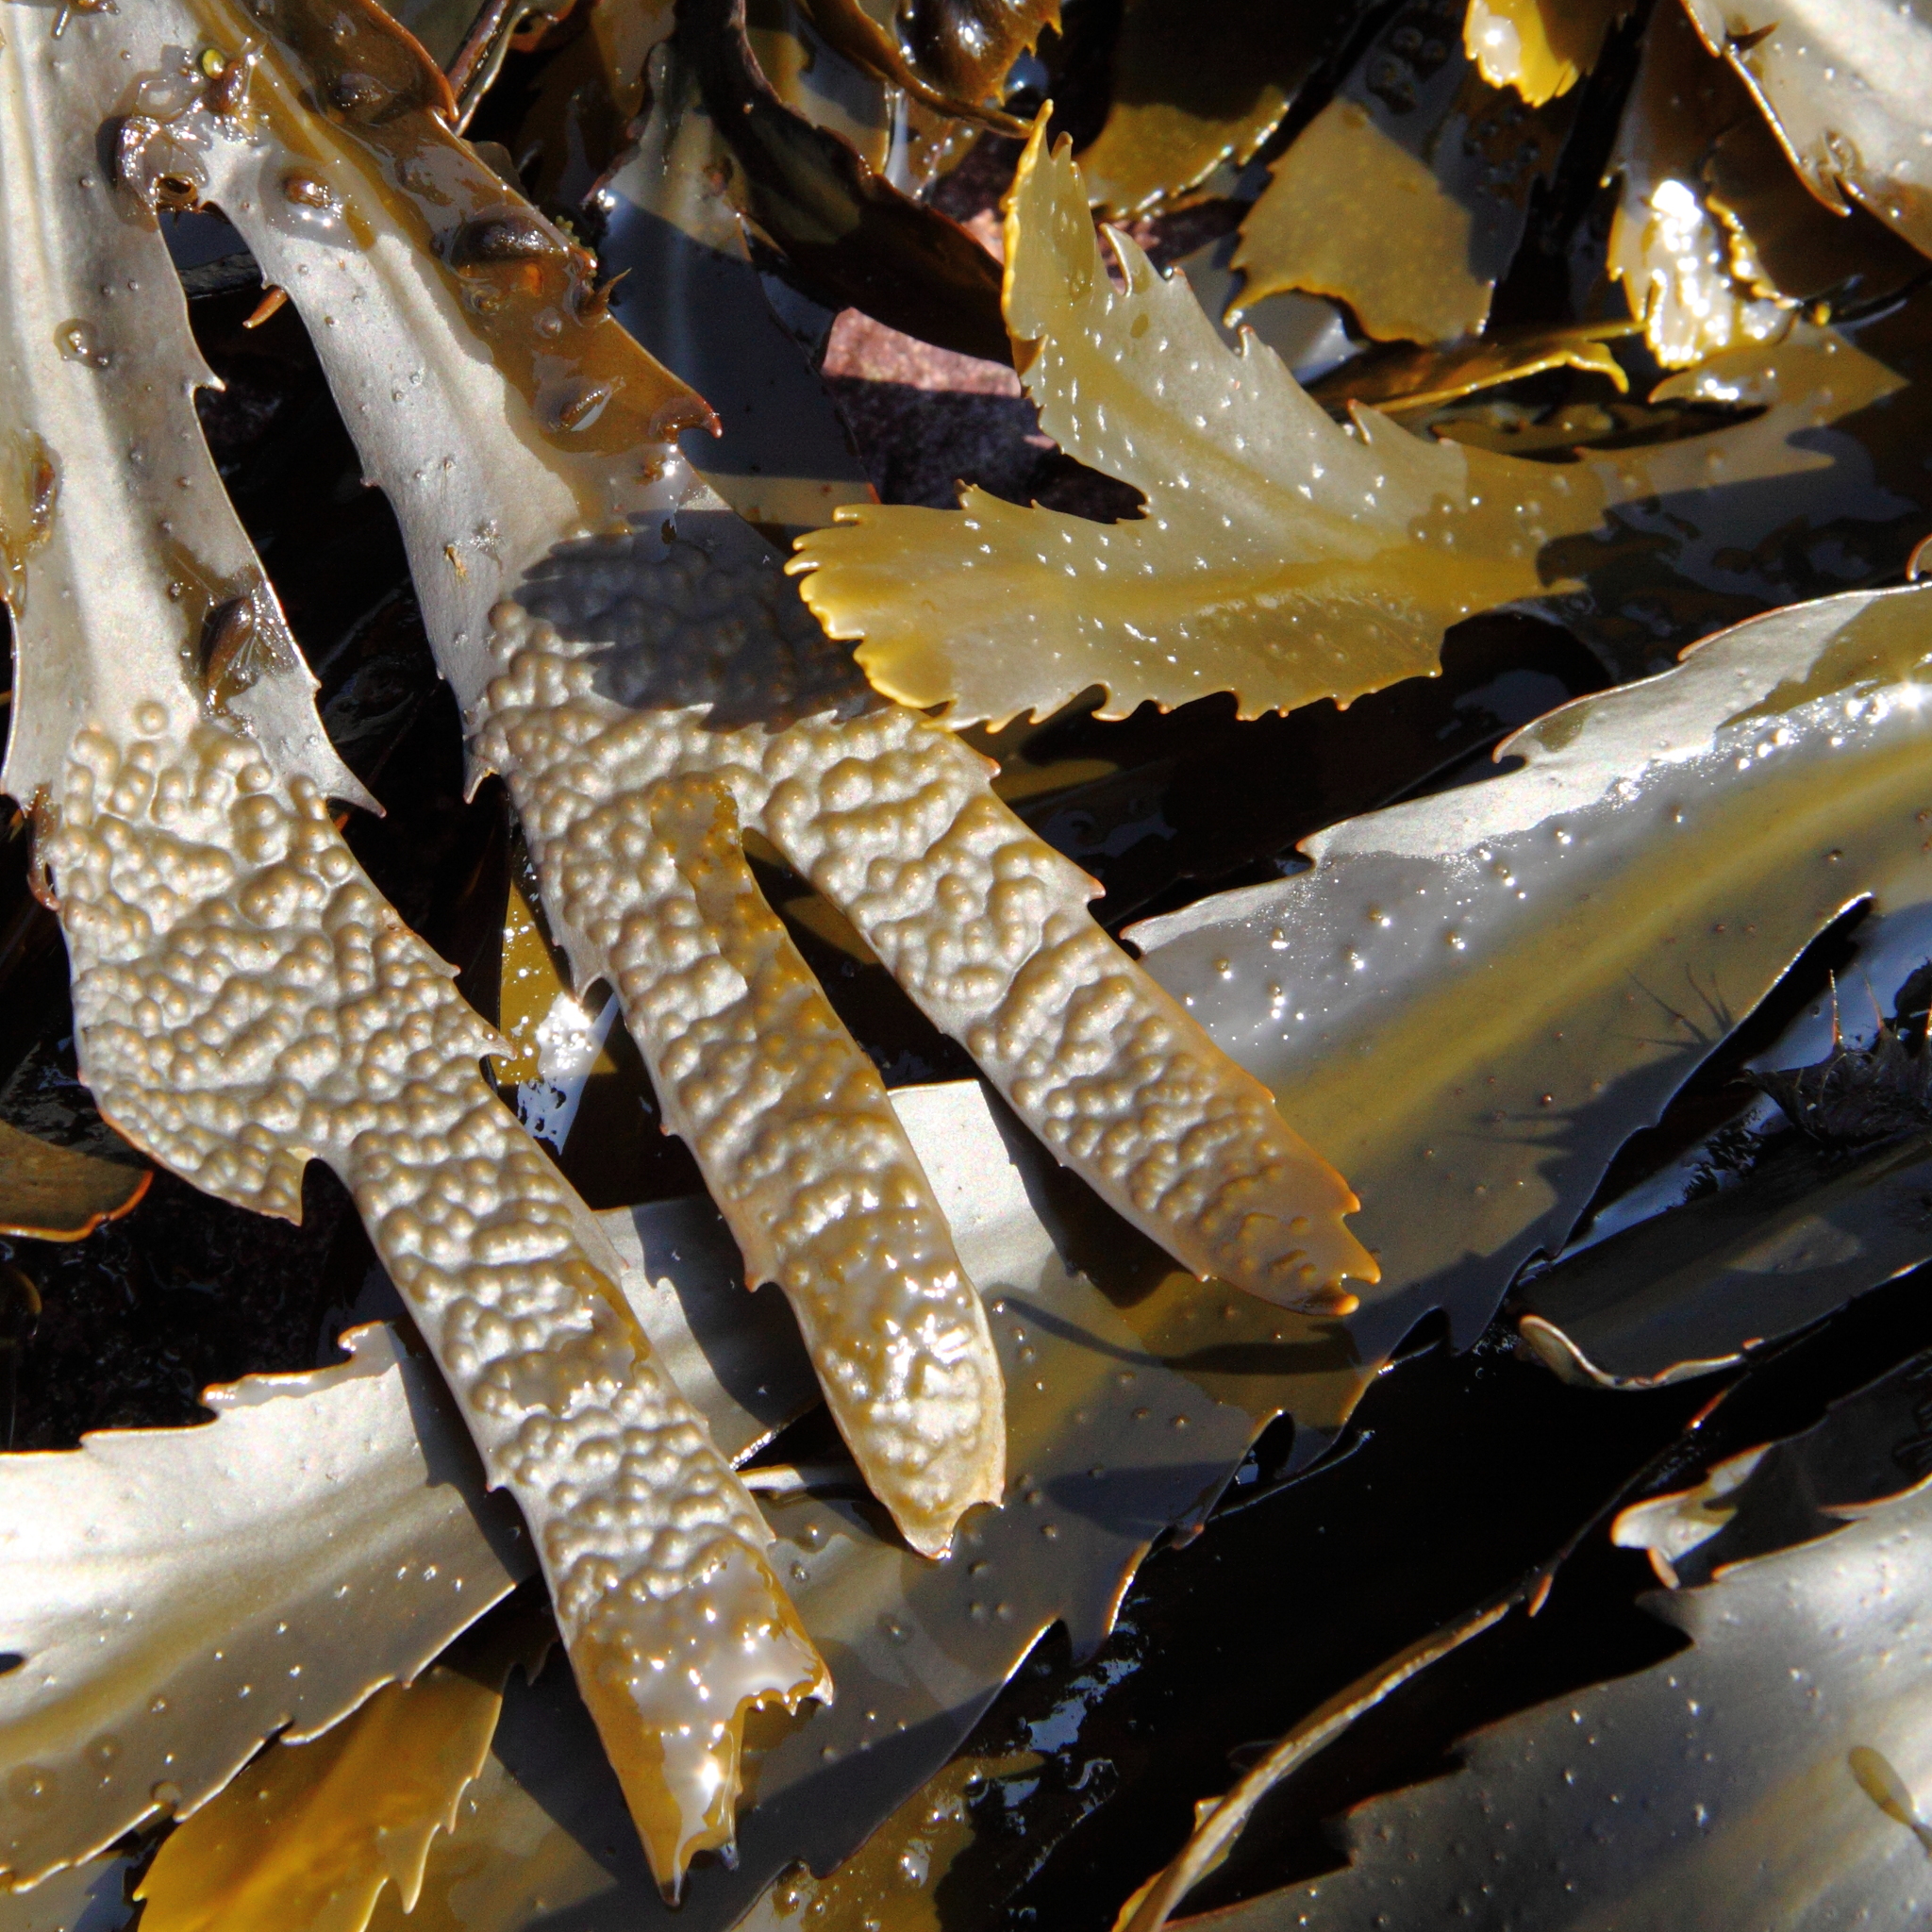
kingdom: Chromista
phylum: Ochrophyta
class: Phaeophyceae
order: Fucales
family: Fucaceae
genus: Fucus
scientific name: Fucus serratus
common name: Toothed wrack
